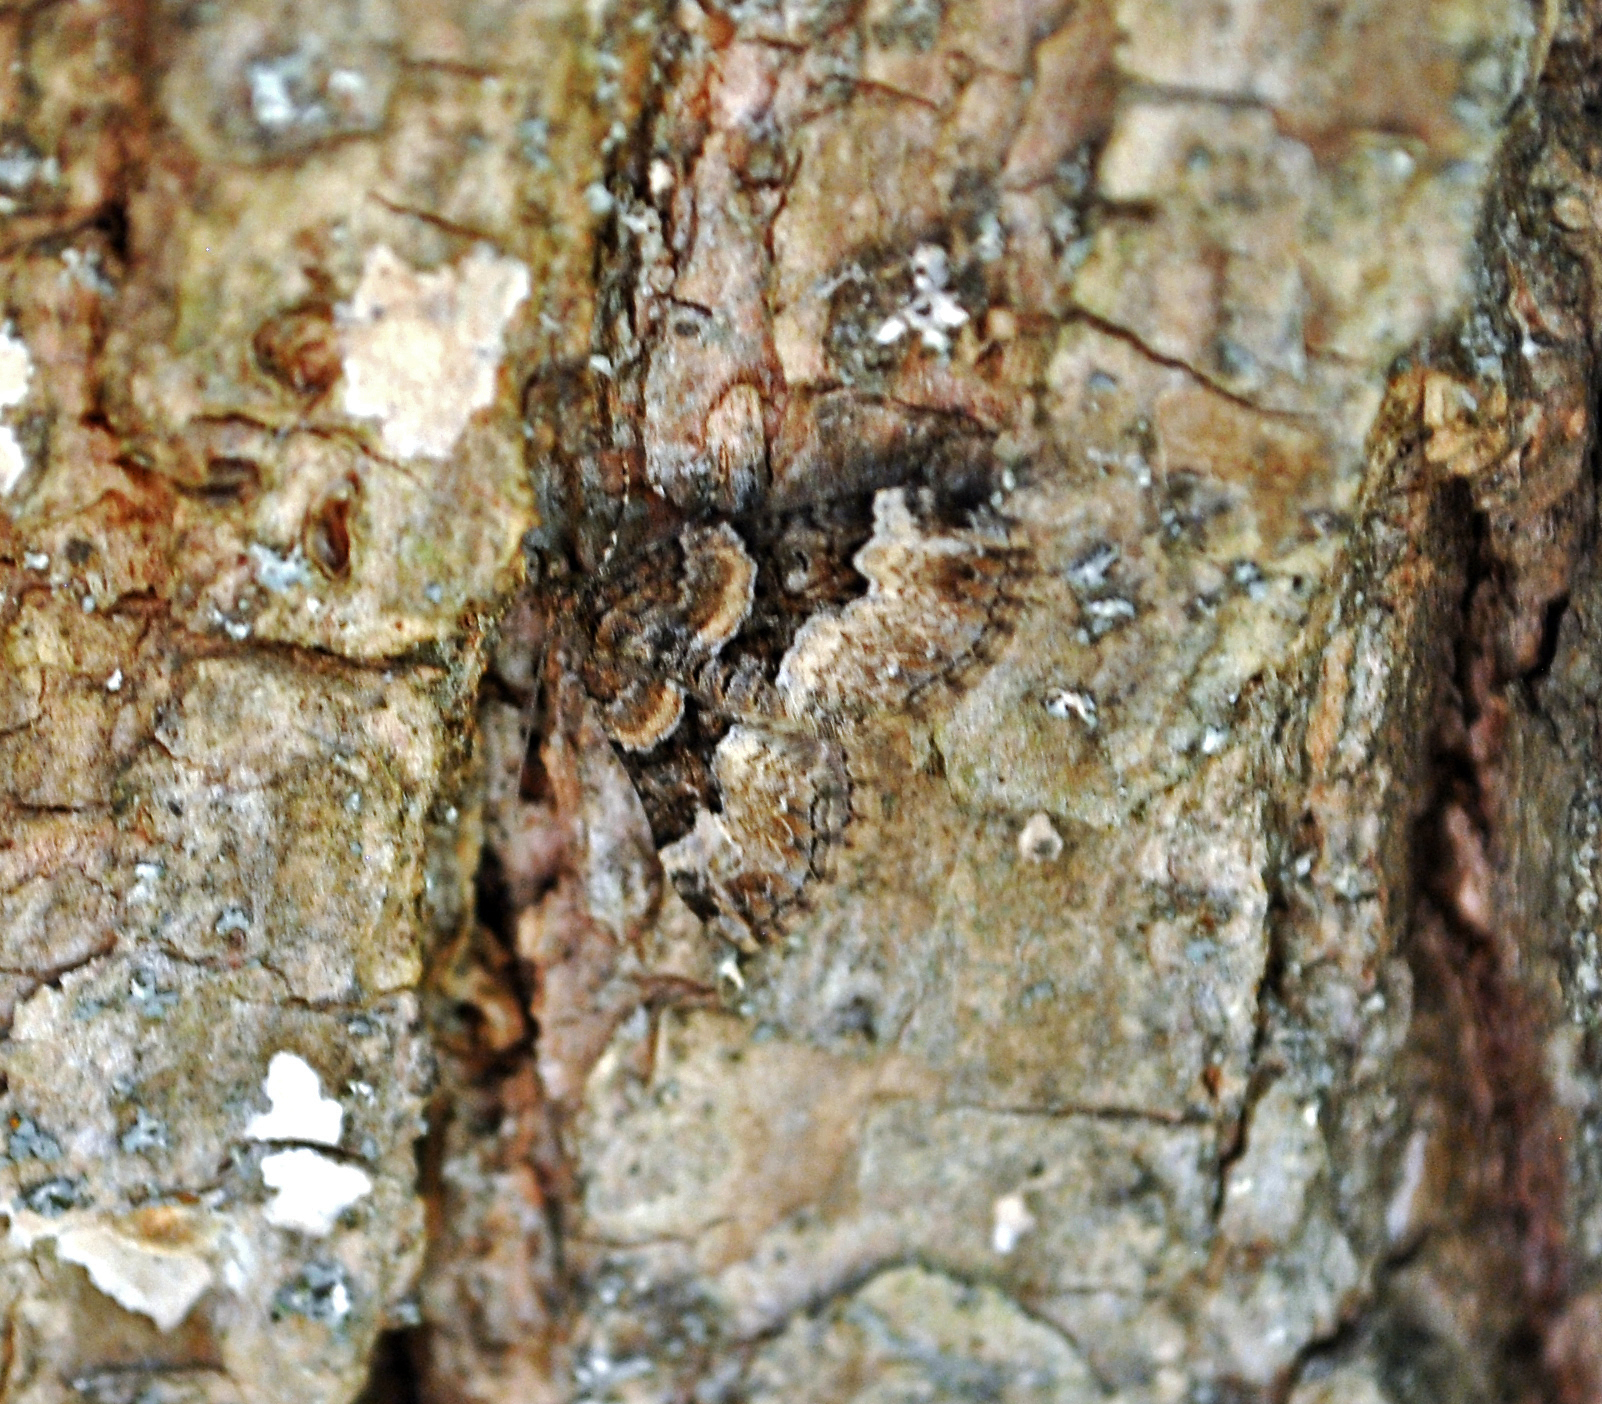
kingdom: Animalia
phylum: Arthropoda
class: Insecta
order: Lepidoptera
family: Geometridae
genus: Euphyia
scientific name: Euphyia intermediata
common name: Sharp-angled carpet
